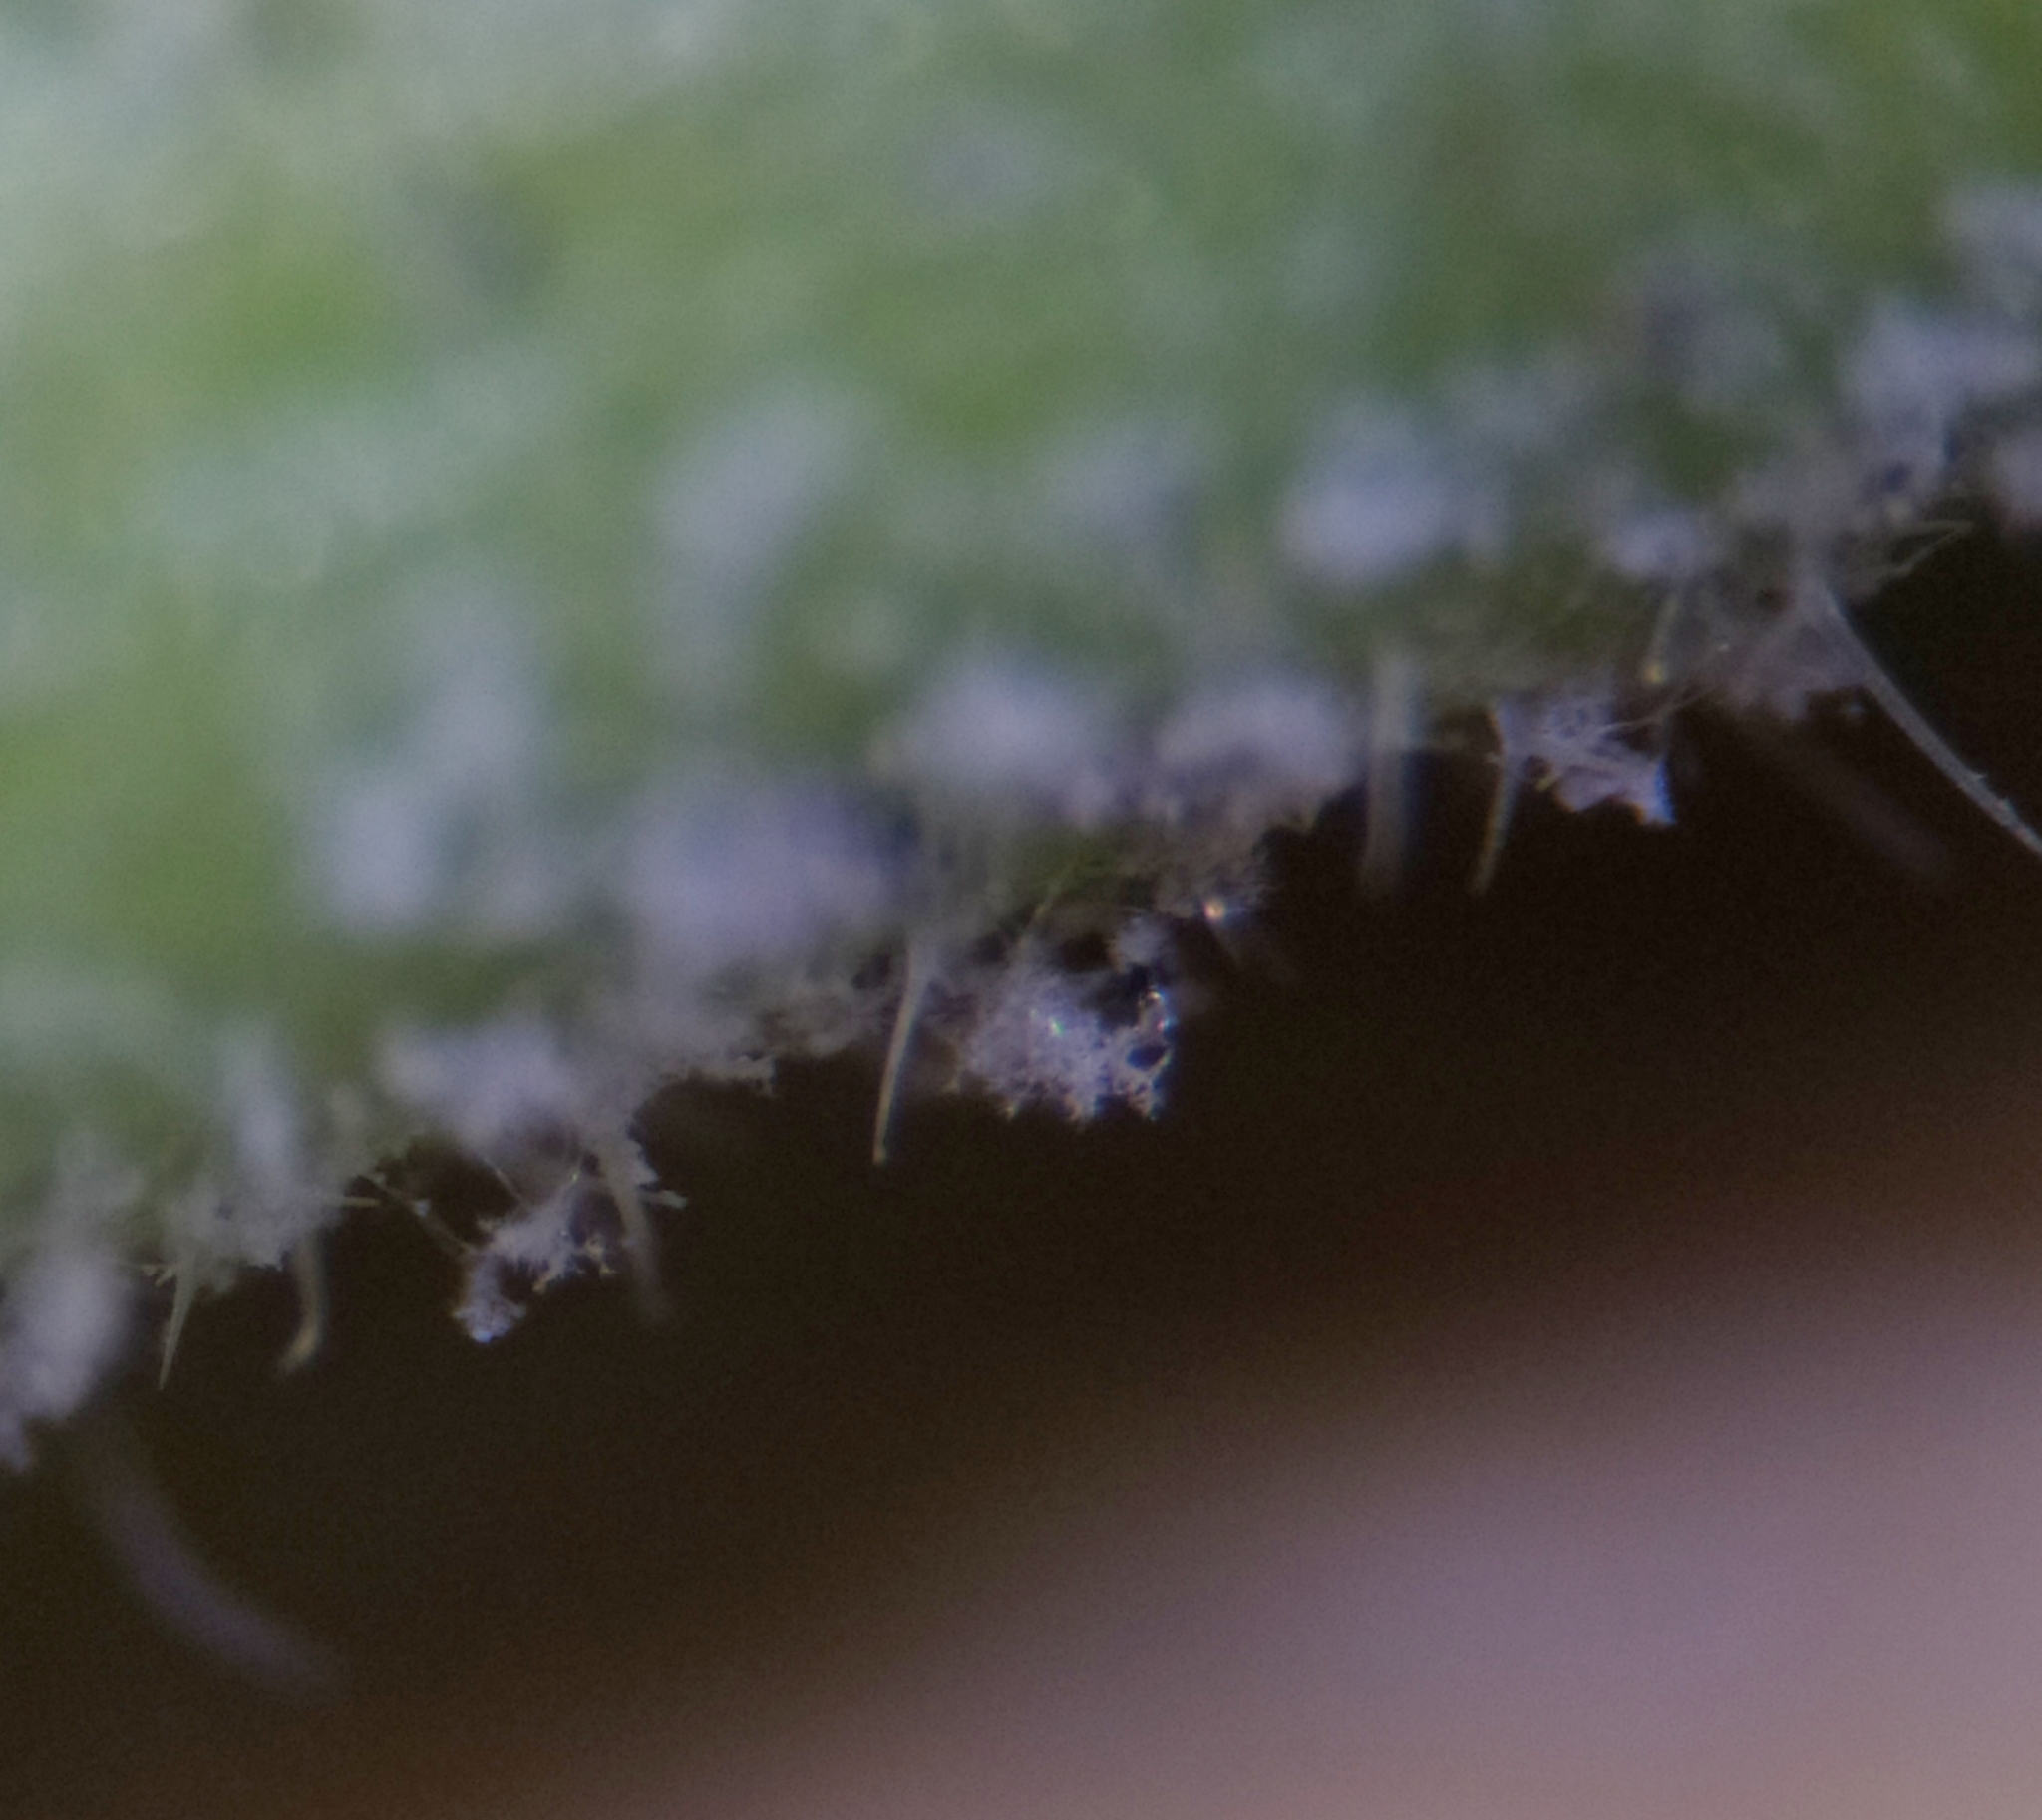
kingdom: Chromista
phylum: Oomycota
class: Peronosporea
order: Peronosporales
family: Peronosporaceae
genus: Hyaloperonospora
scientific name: Hyaloperonospora camelinae
